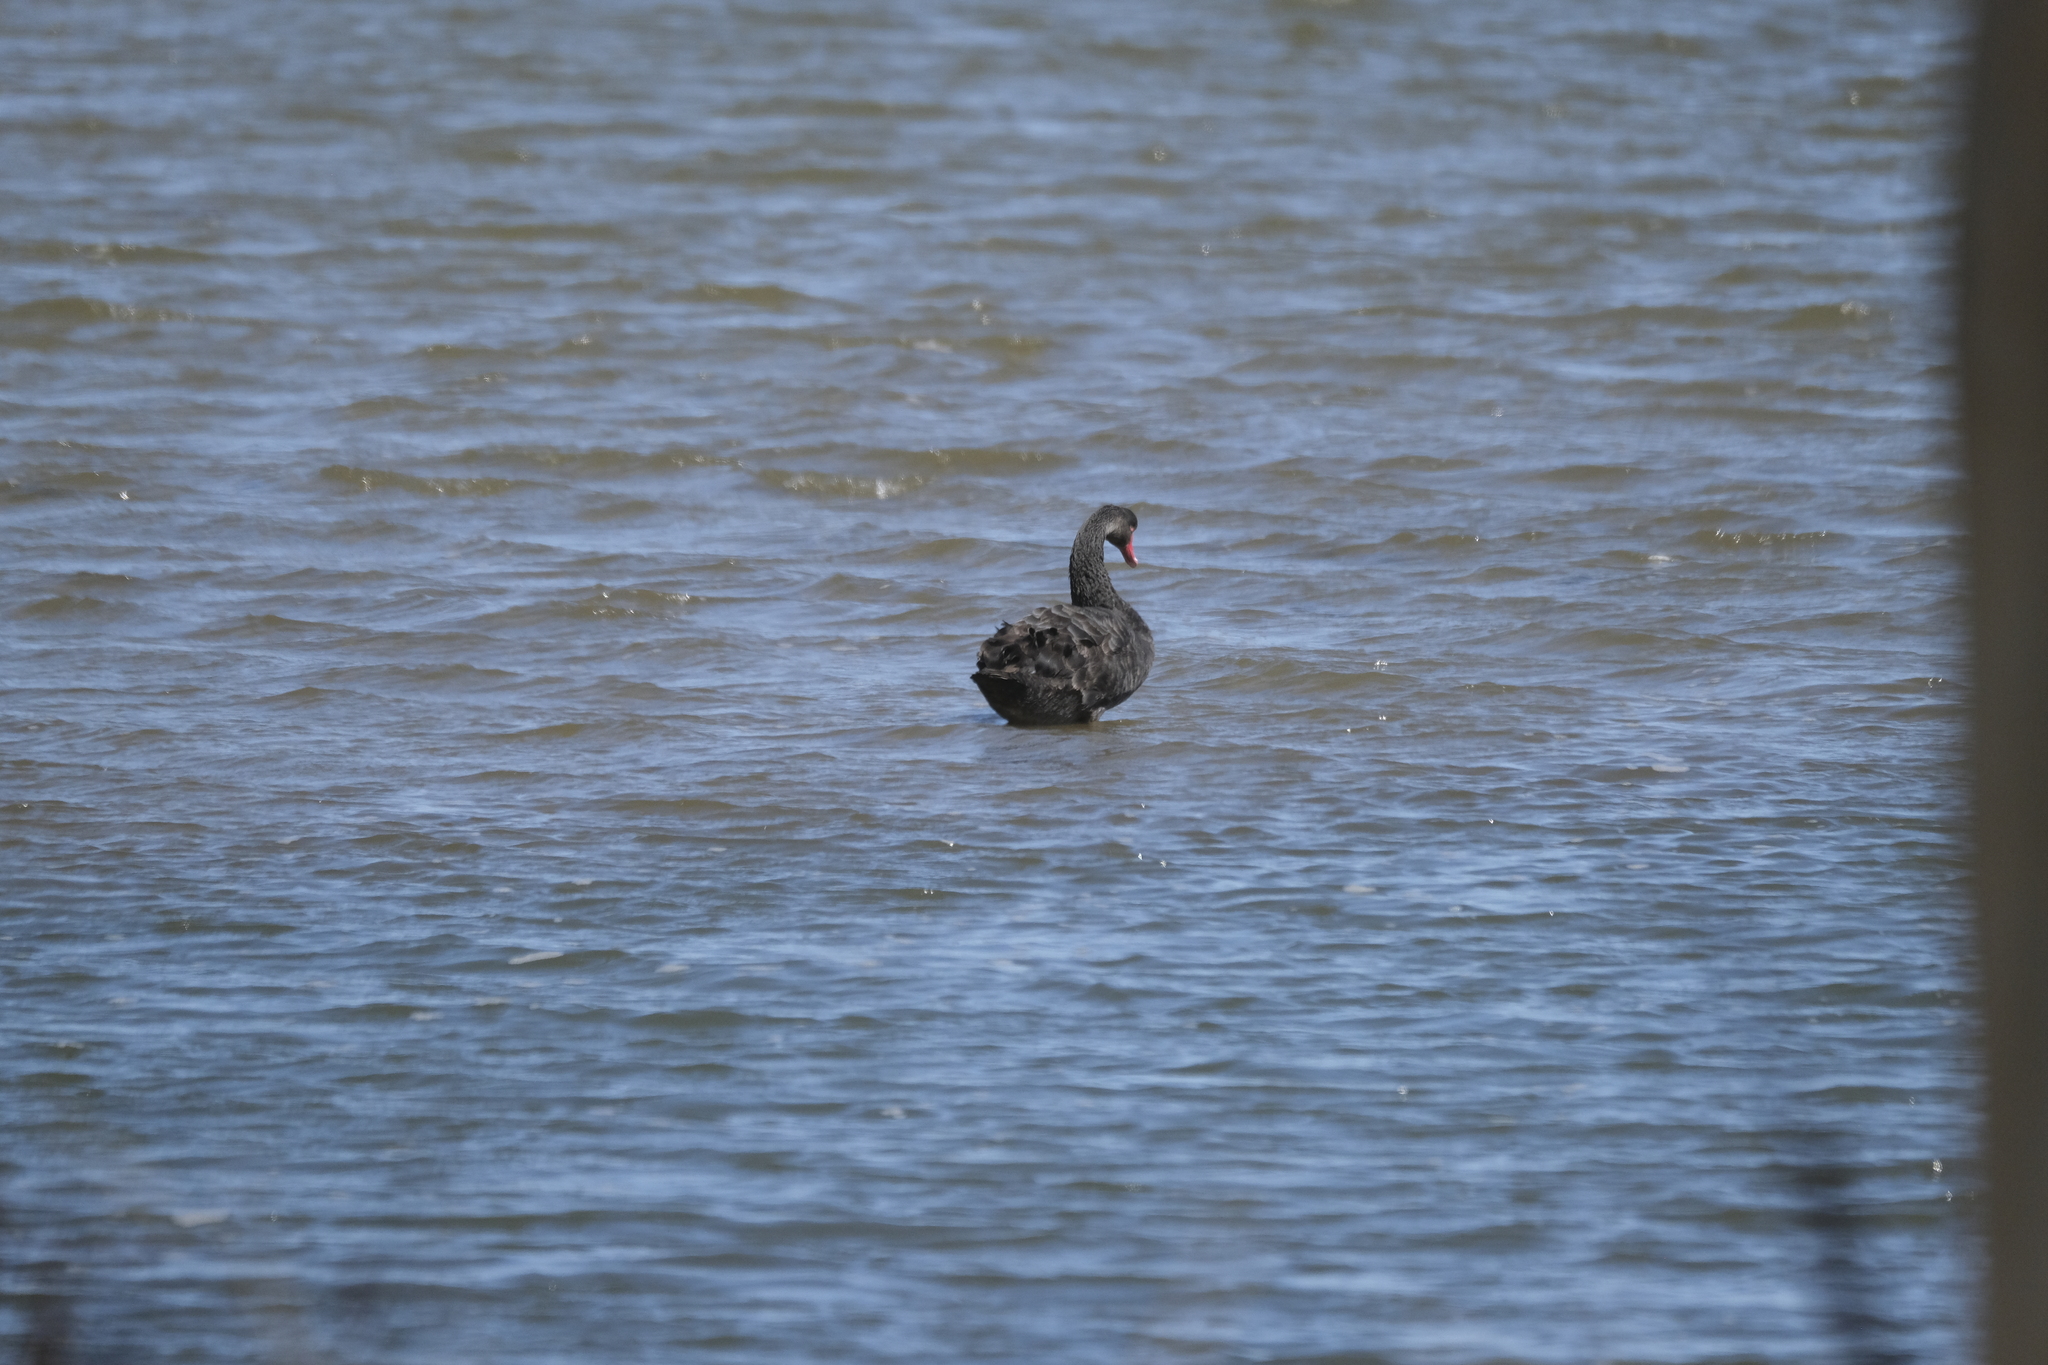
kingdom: Animalia
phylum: Chordata
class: Aves
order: Anseriformes
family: Anatidae
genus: Cygnus
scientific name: Cygnus atratus
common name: Black swan
